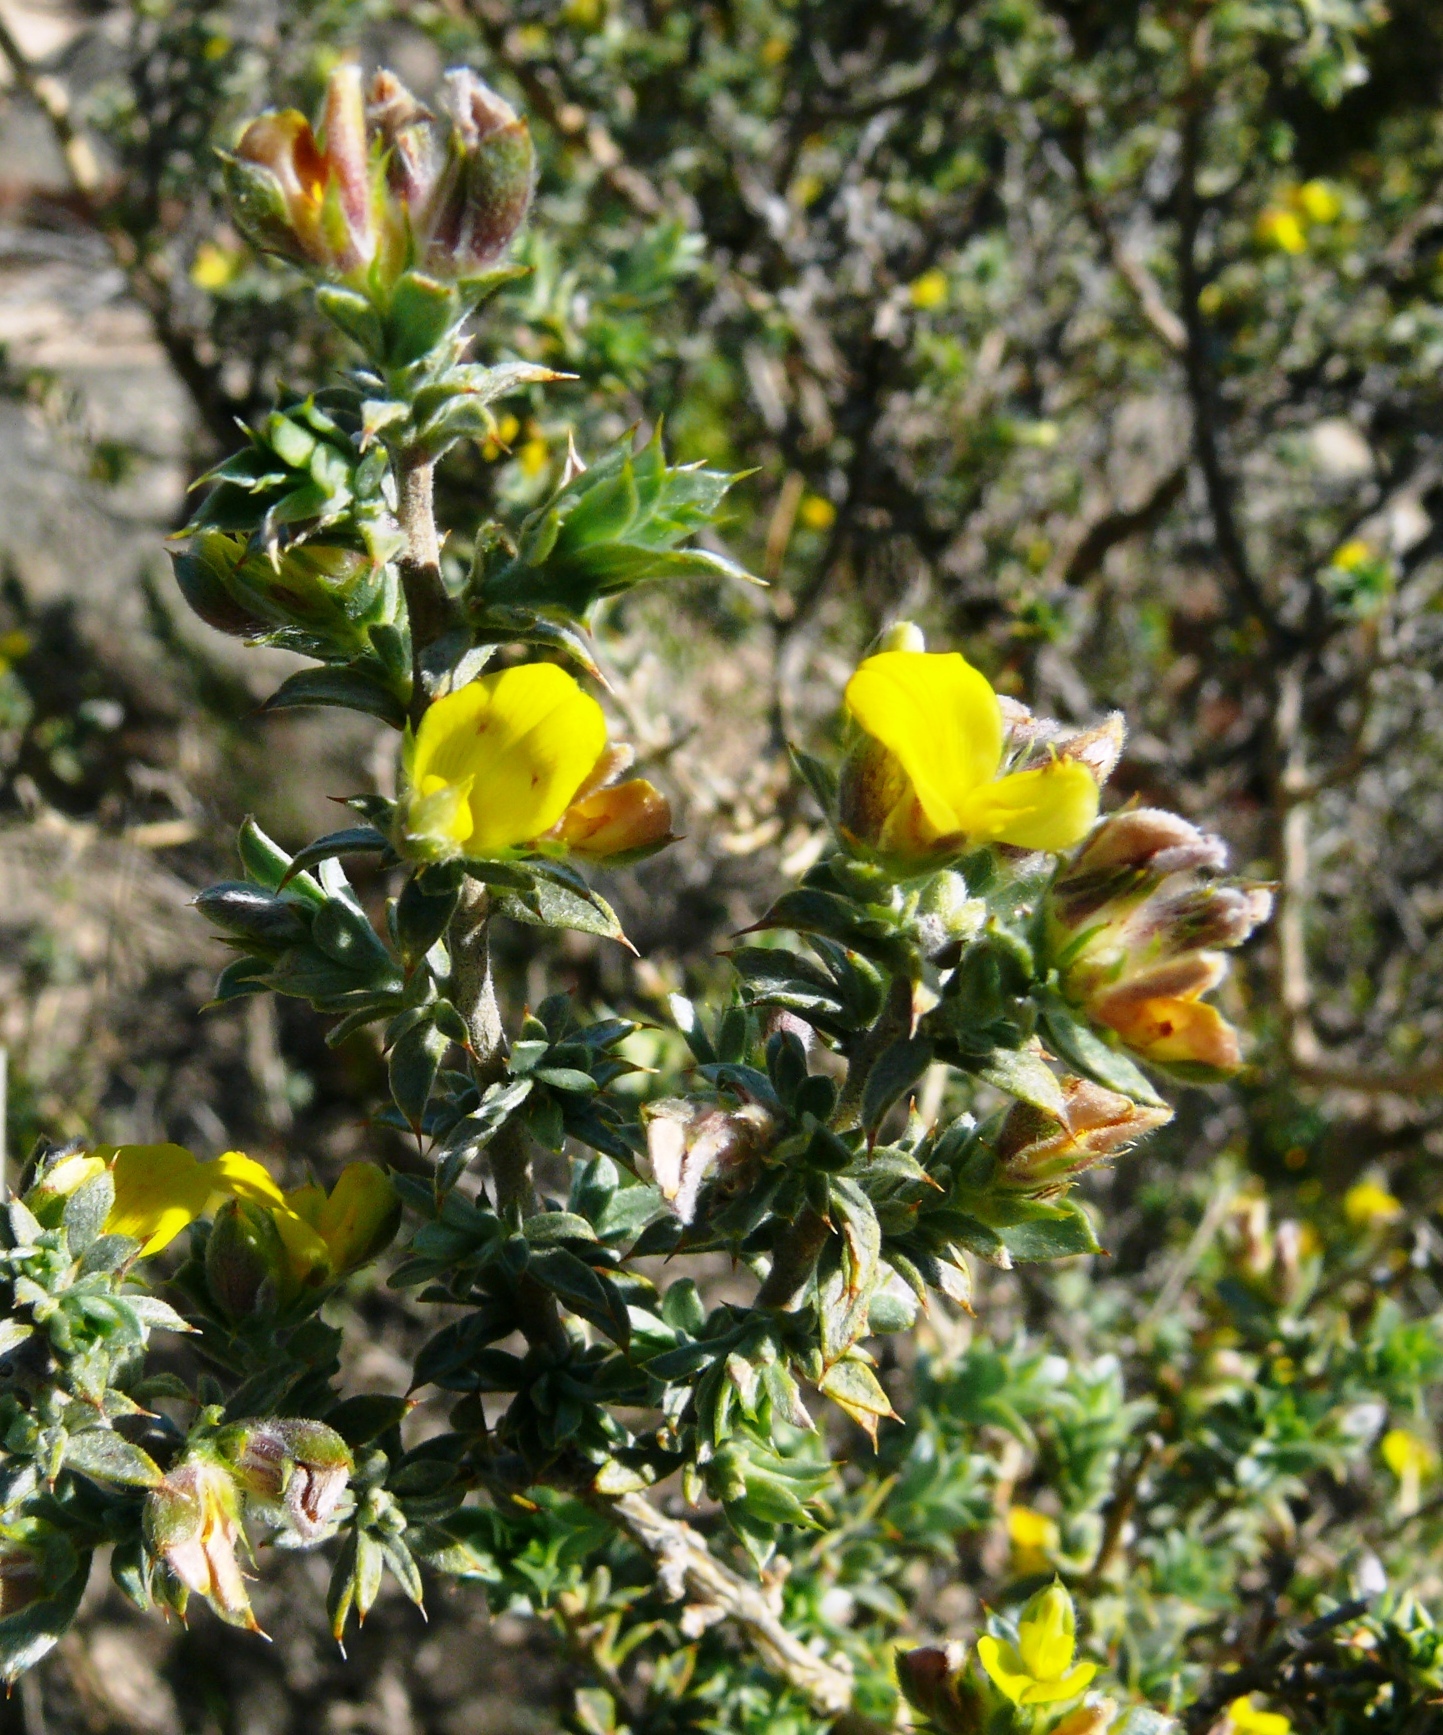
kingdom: Plantae
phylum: Tracheophyta
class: Magnoliopsida
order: Fabales
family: Fabaceae
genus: Aspalathus
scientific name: Aspalathus polycephala
